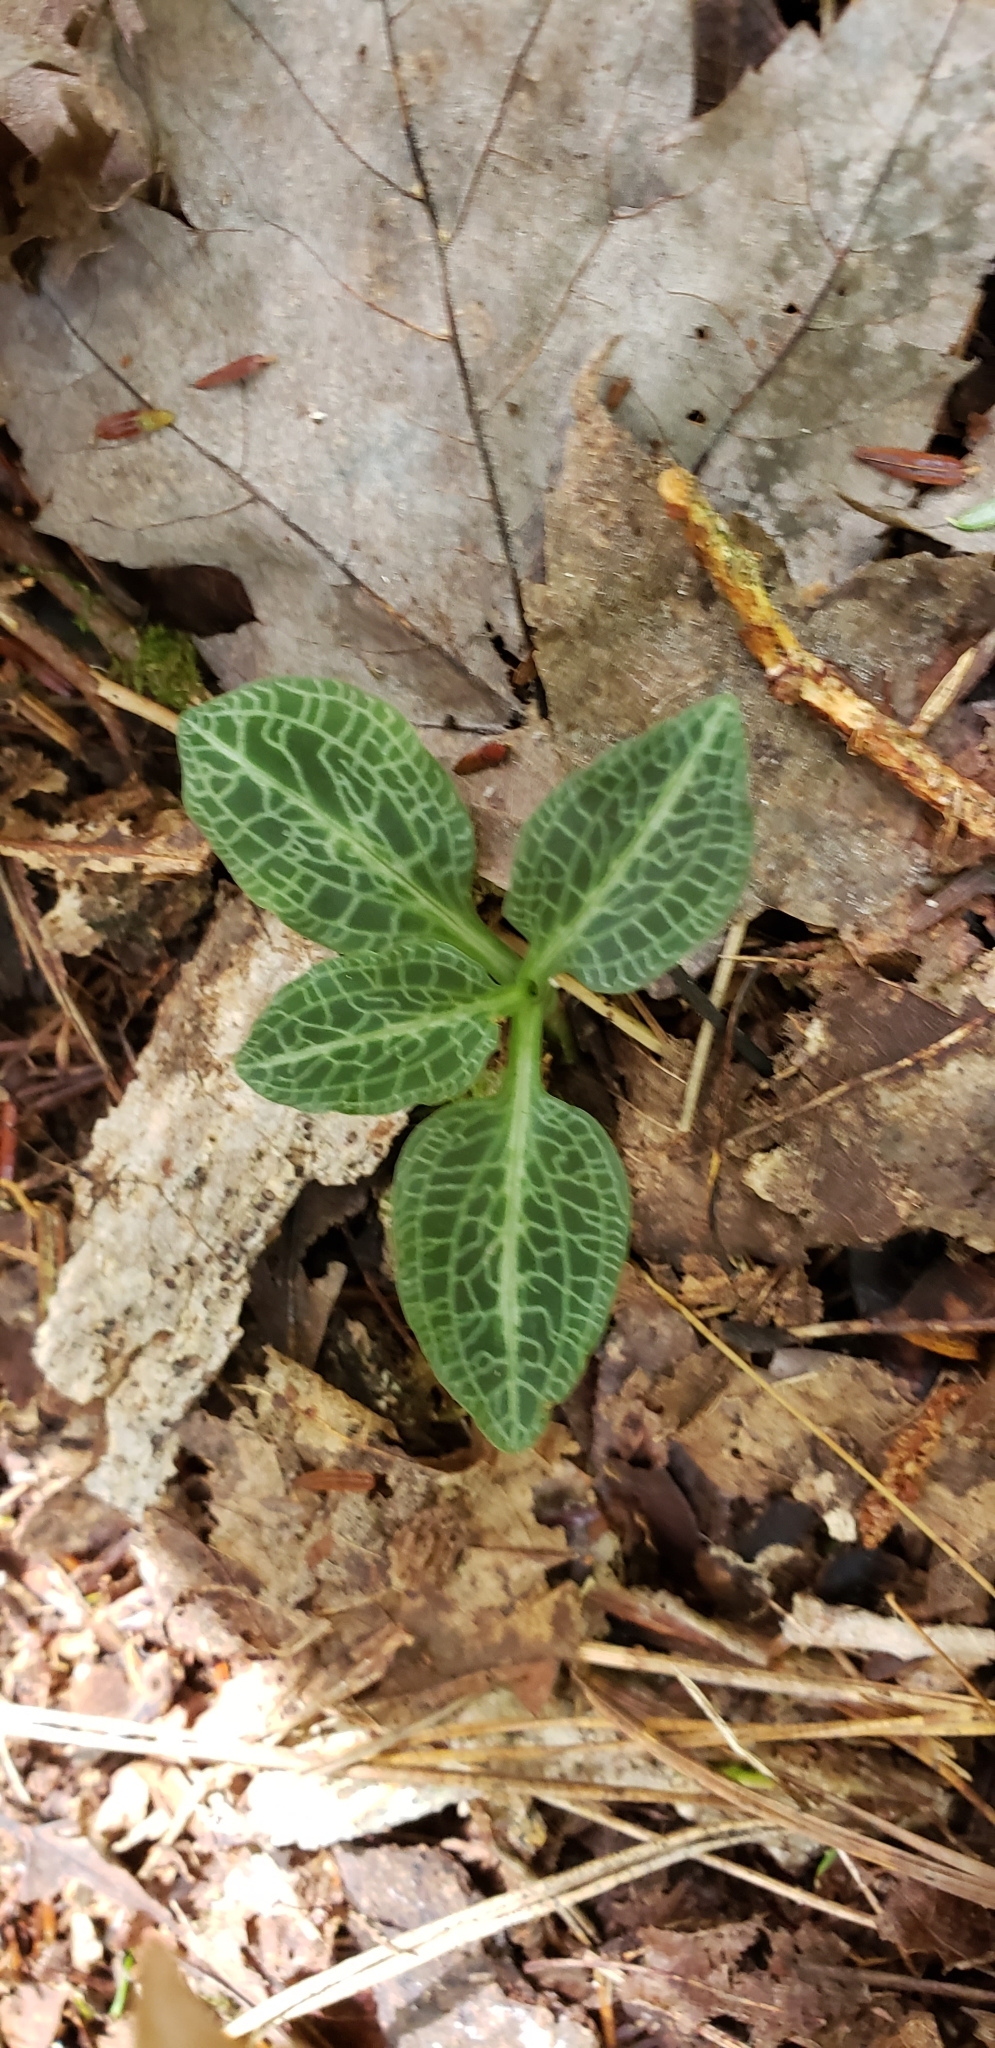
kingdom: Plantae
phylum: Tracheophyta
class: Liliopsida
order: Asparagales
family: Orchidaceae
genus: Goodyera
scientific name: Goodyera pubescens
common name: Downy rattlesnake-plantain
